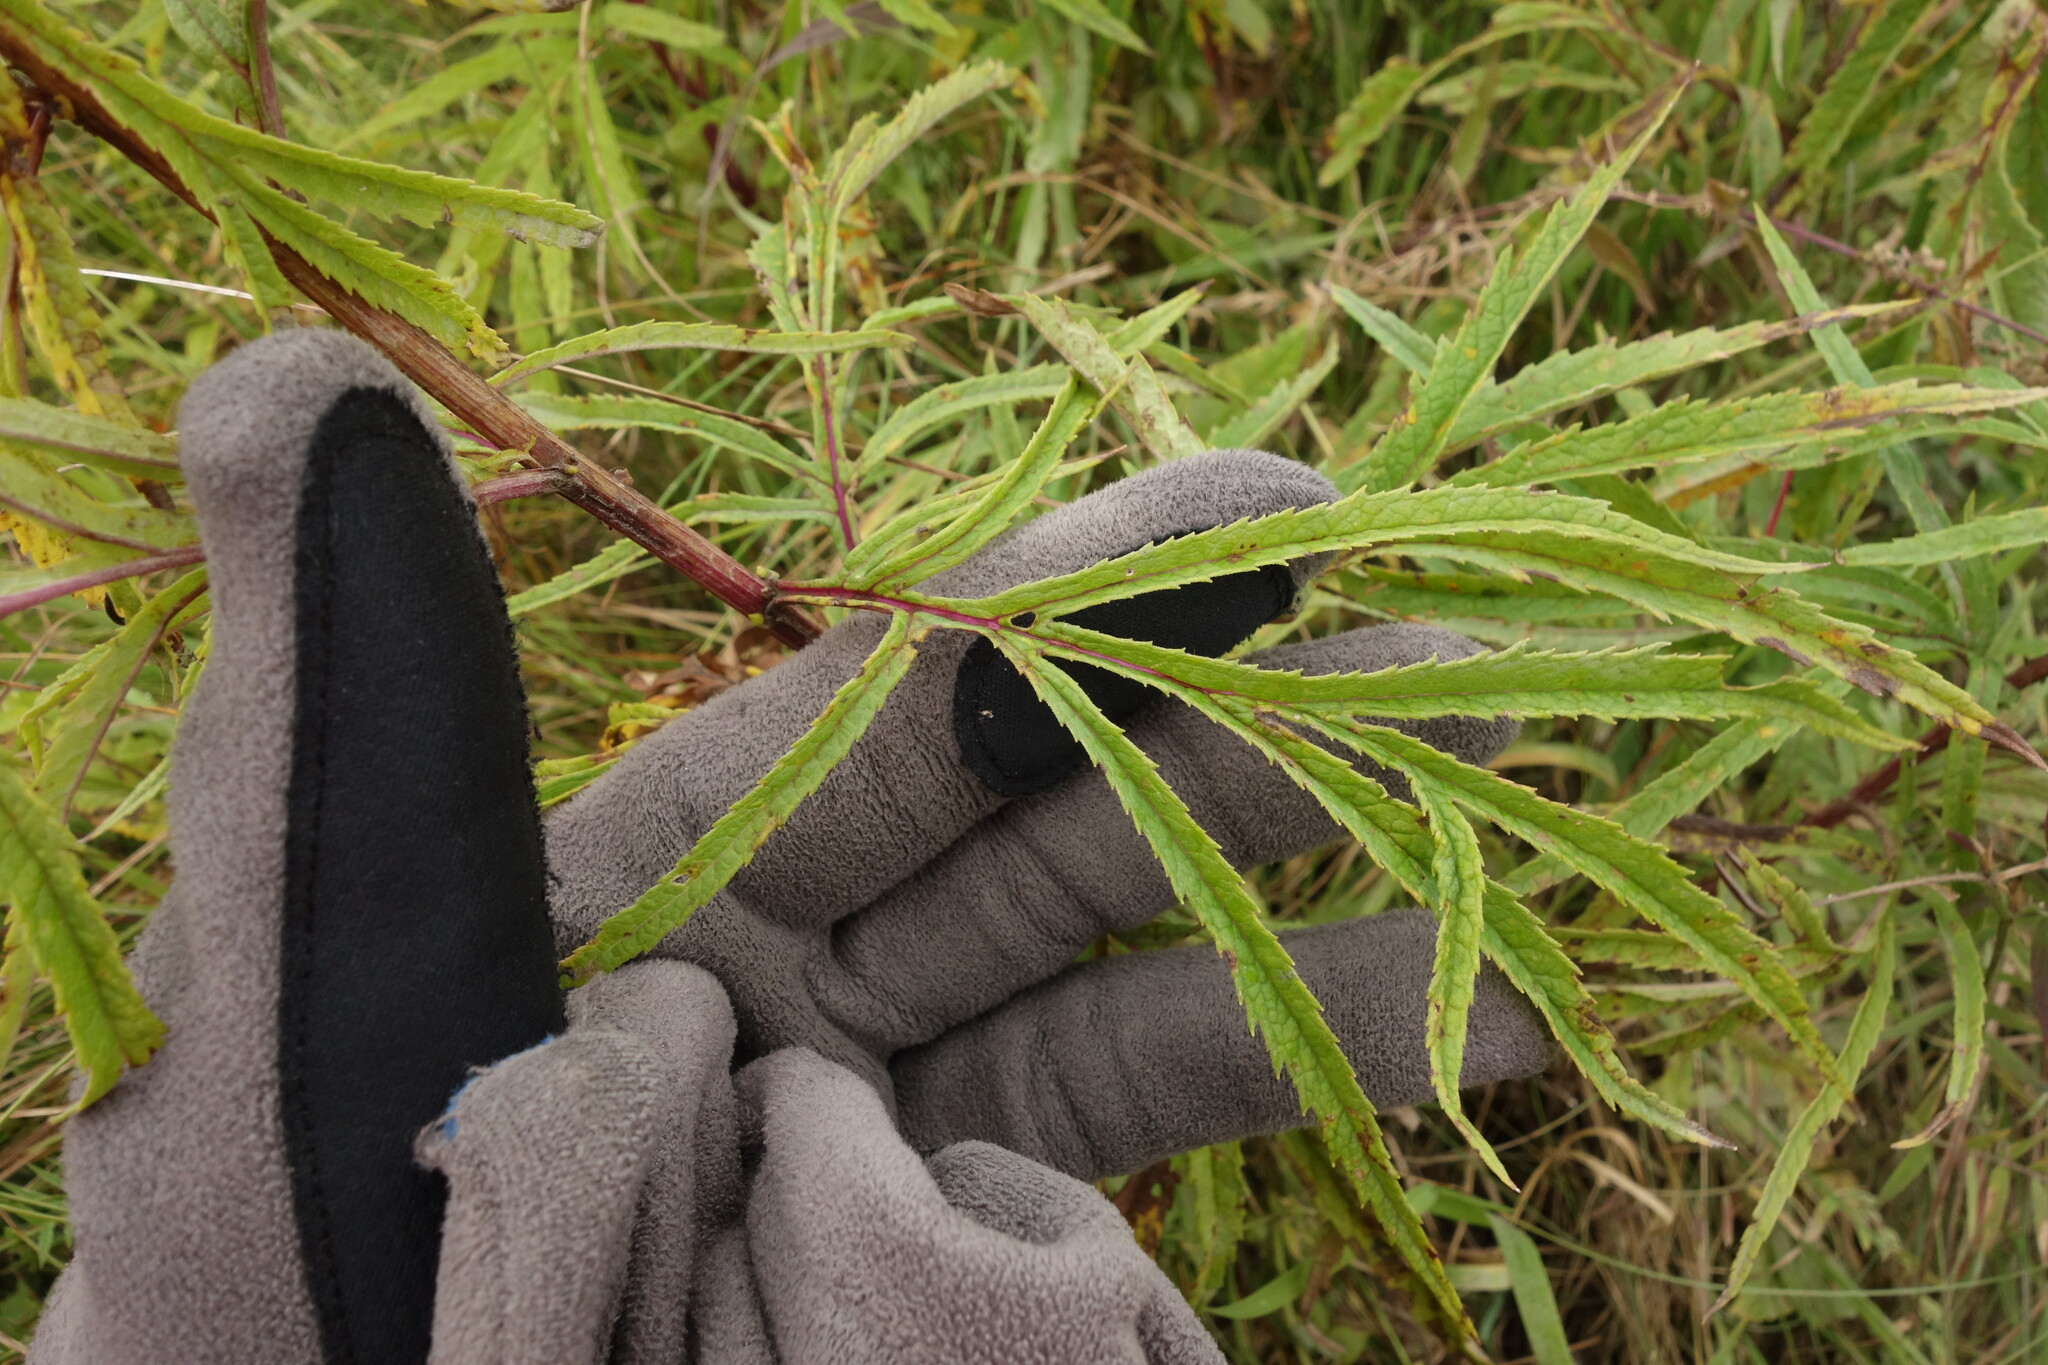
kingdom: Plantae
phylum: Tracheophyta
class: Magnoliopsida
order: Dipsacales
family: Caprifoliaceae
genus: Patrinia
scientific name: Patrinia rupestris
